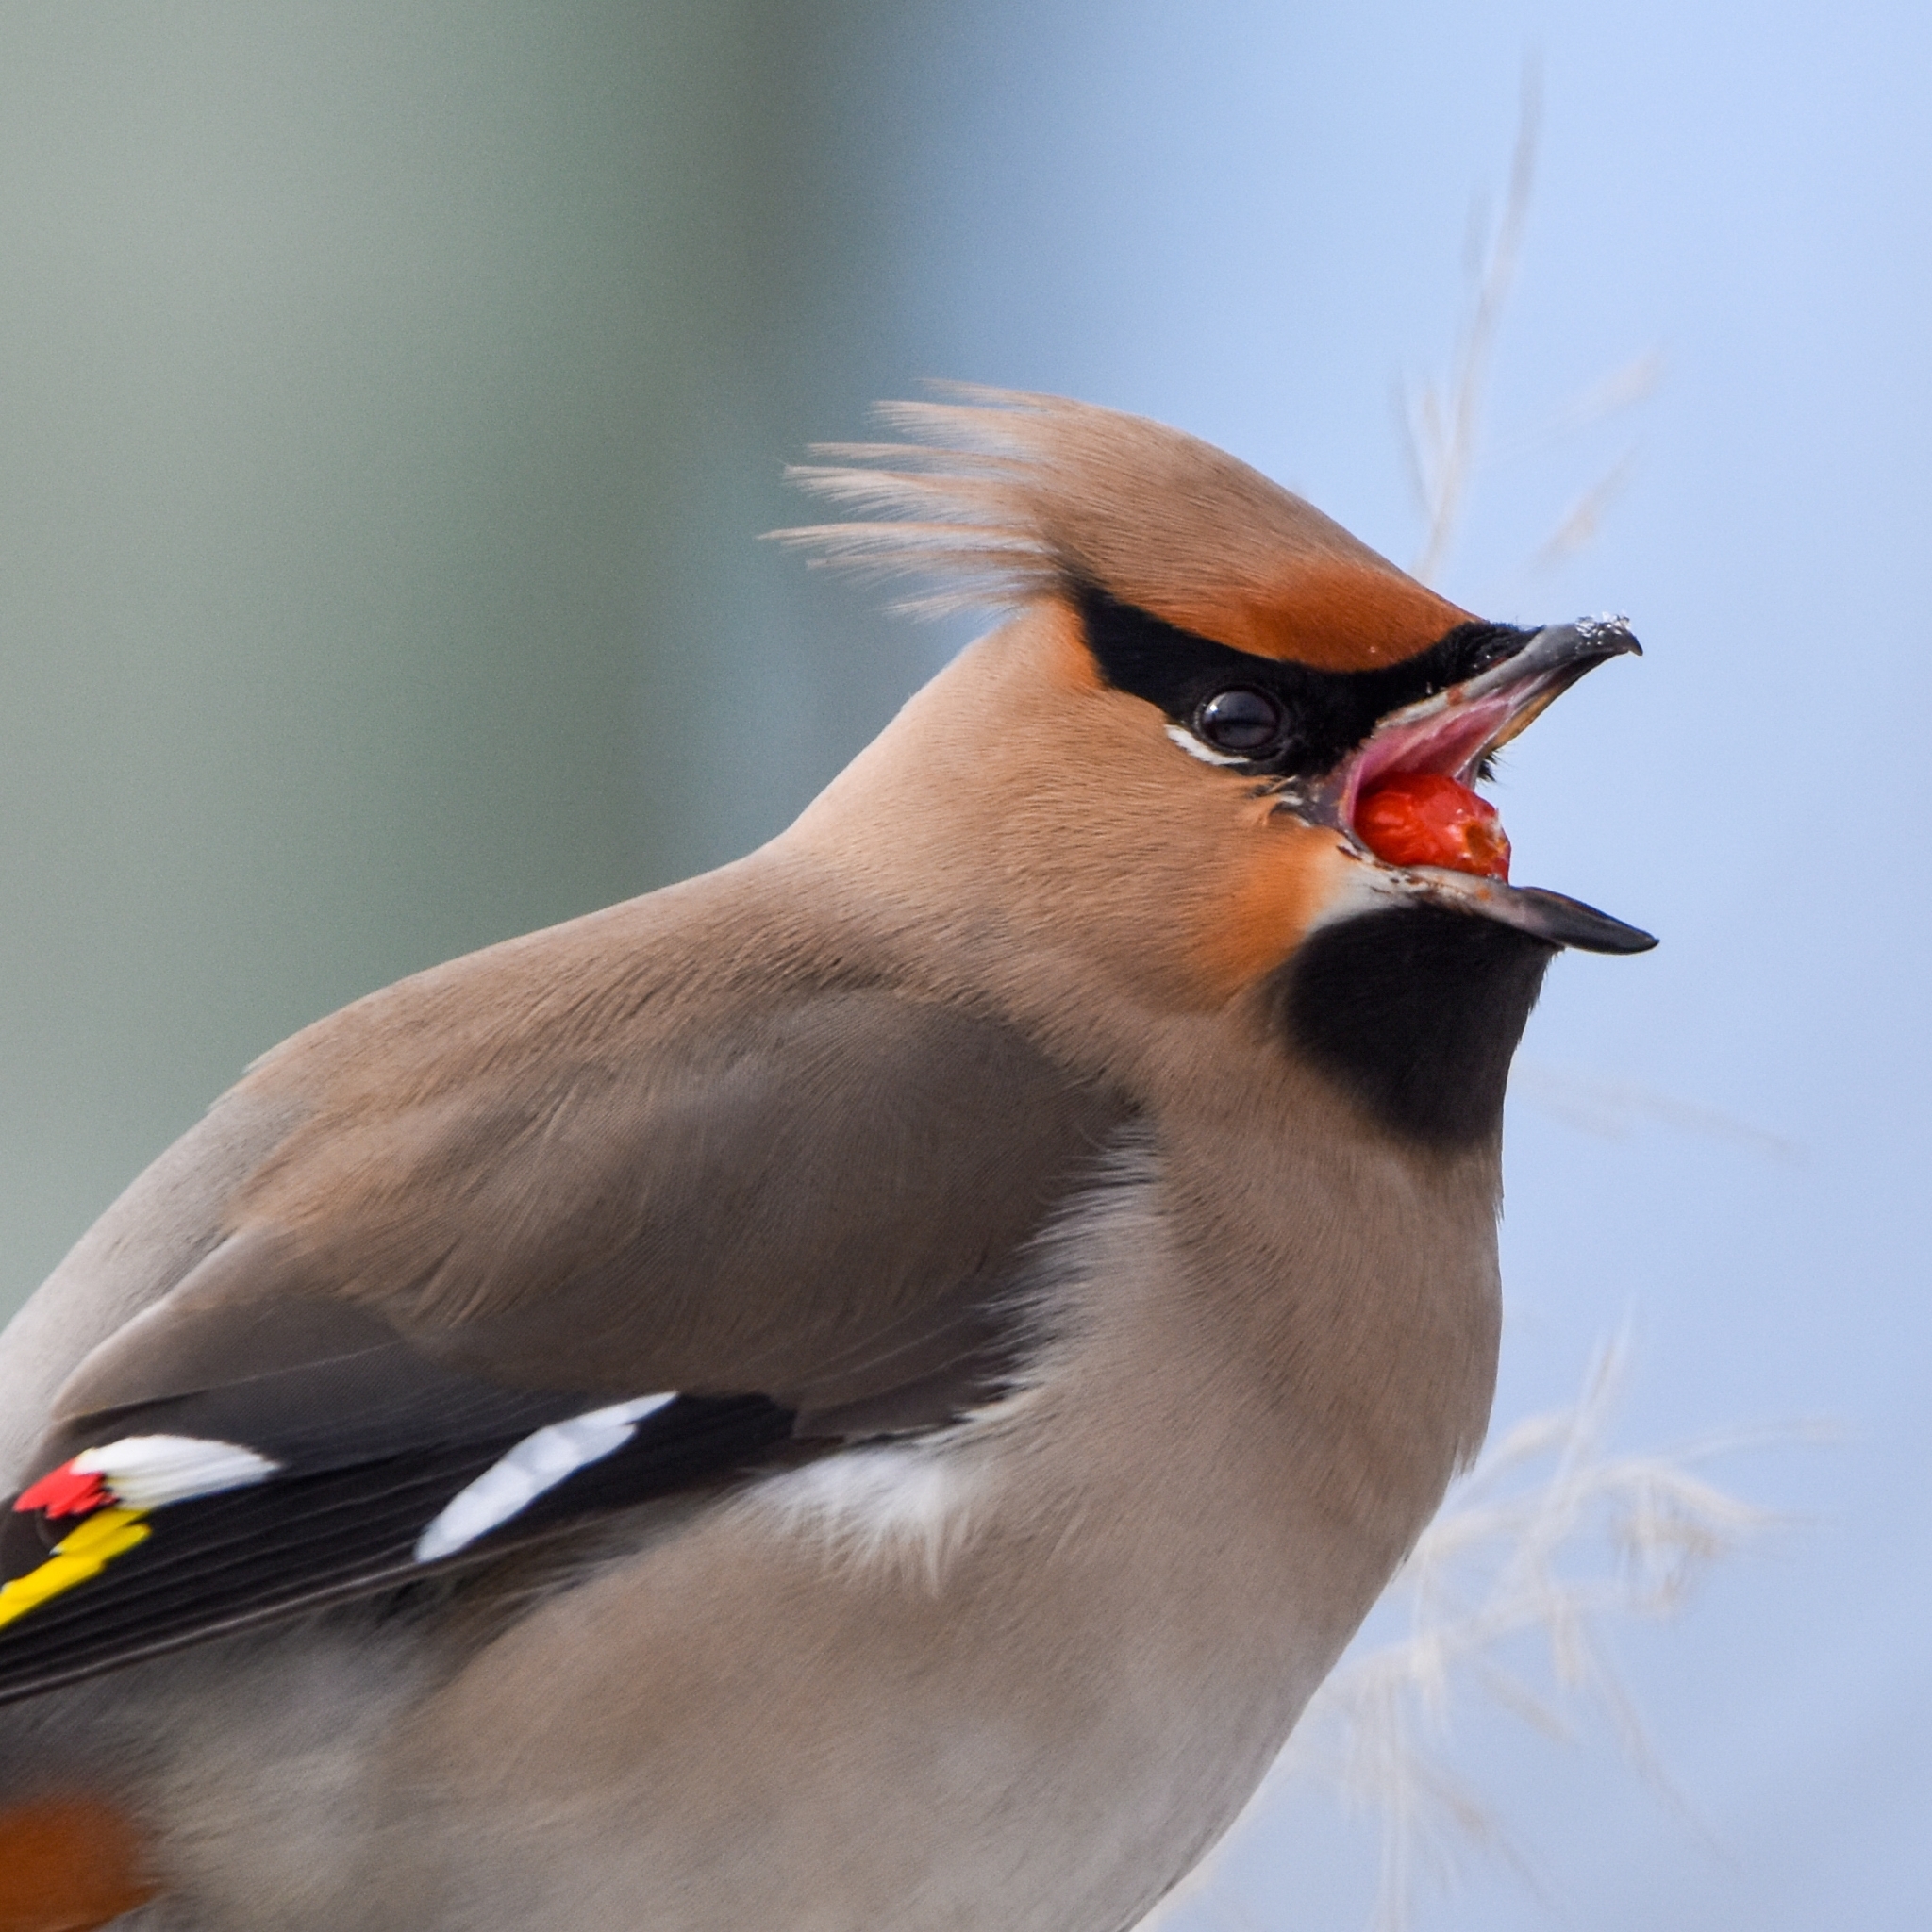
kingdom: Animalia
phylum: Chordata
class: Aves
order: Passeriformes
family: Bombycillidae
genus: Bombycilla
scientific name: Bombycilla garrulus
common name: Bohemian waxwing
